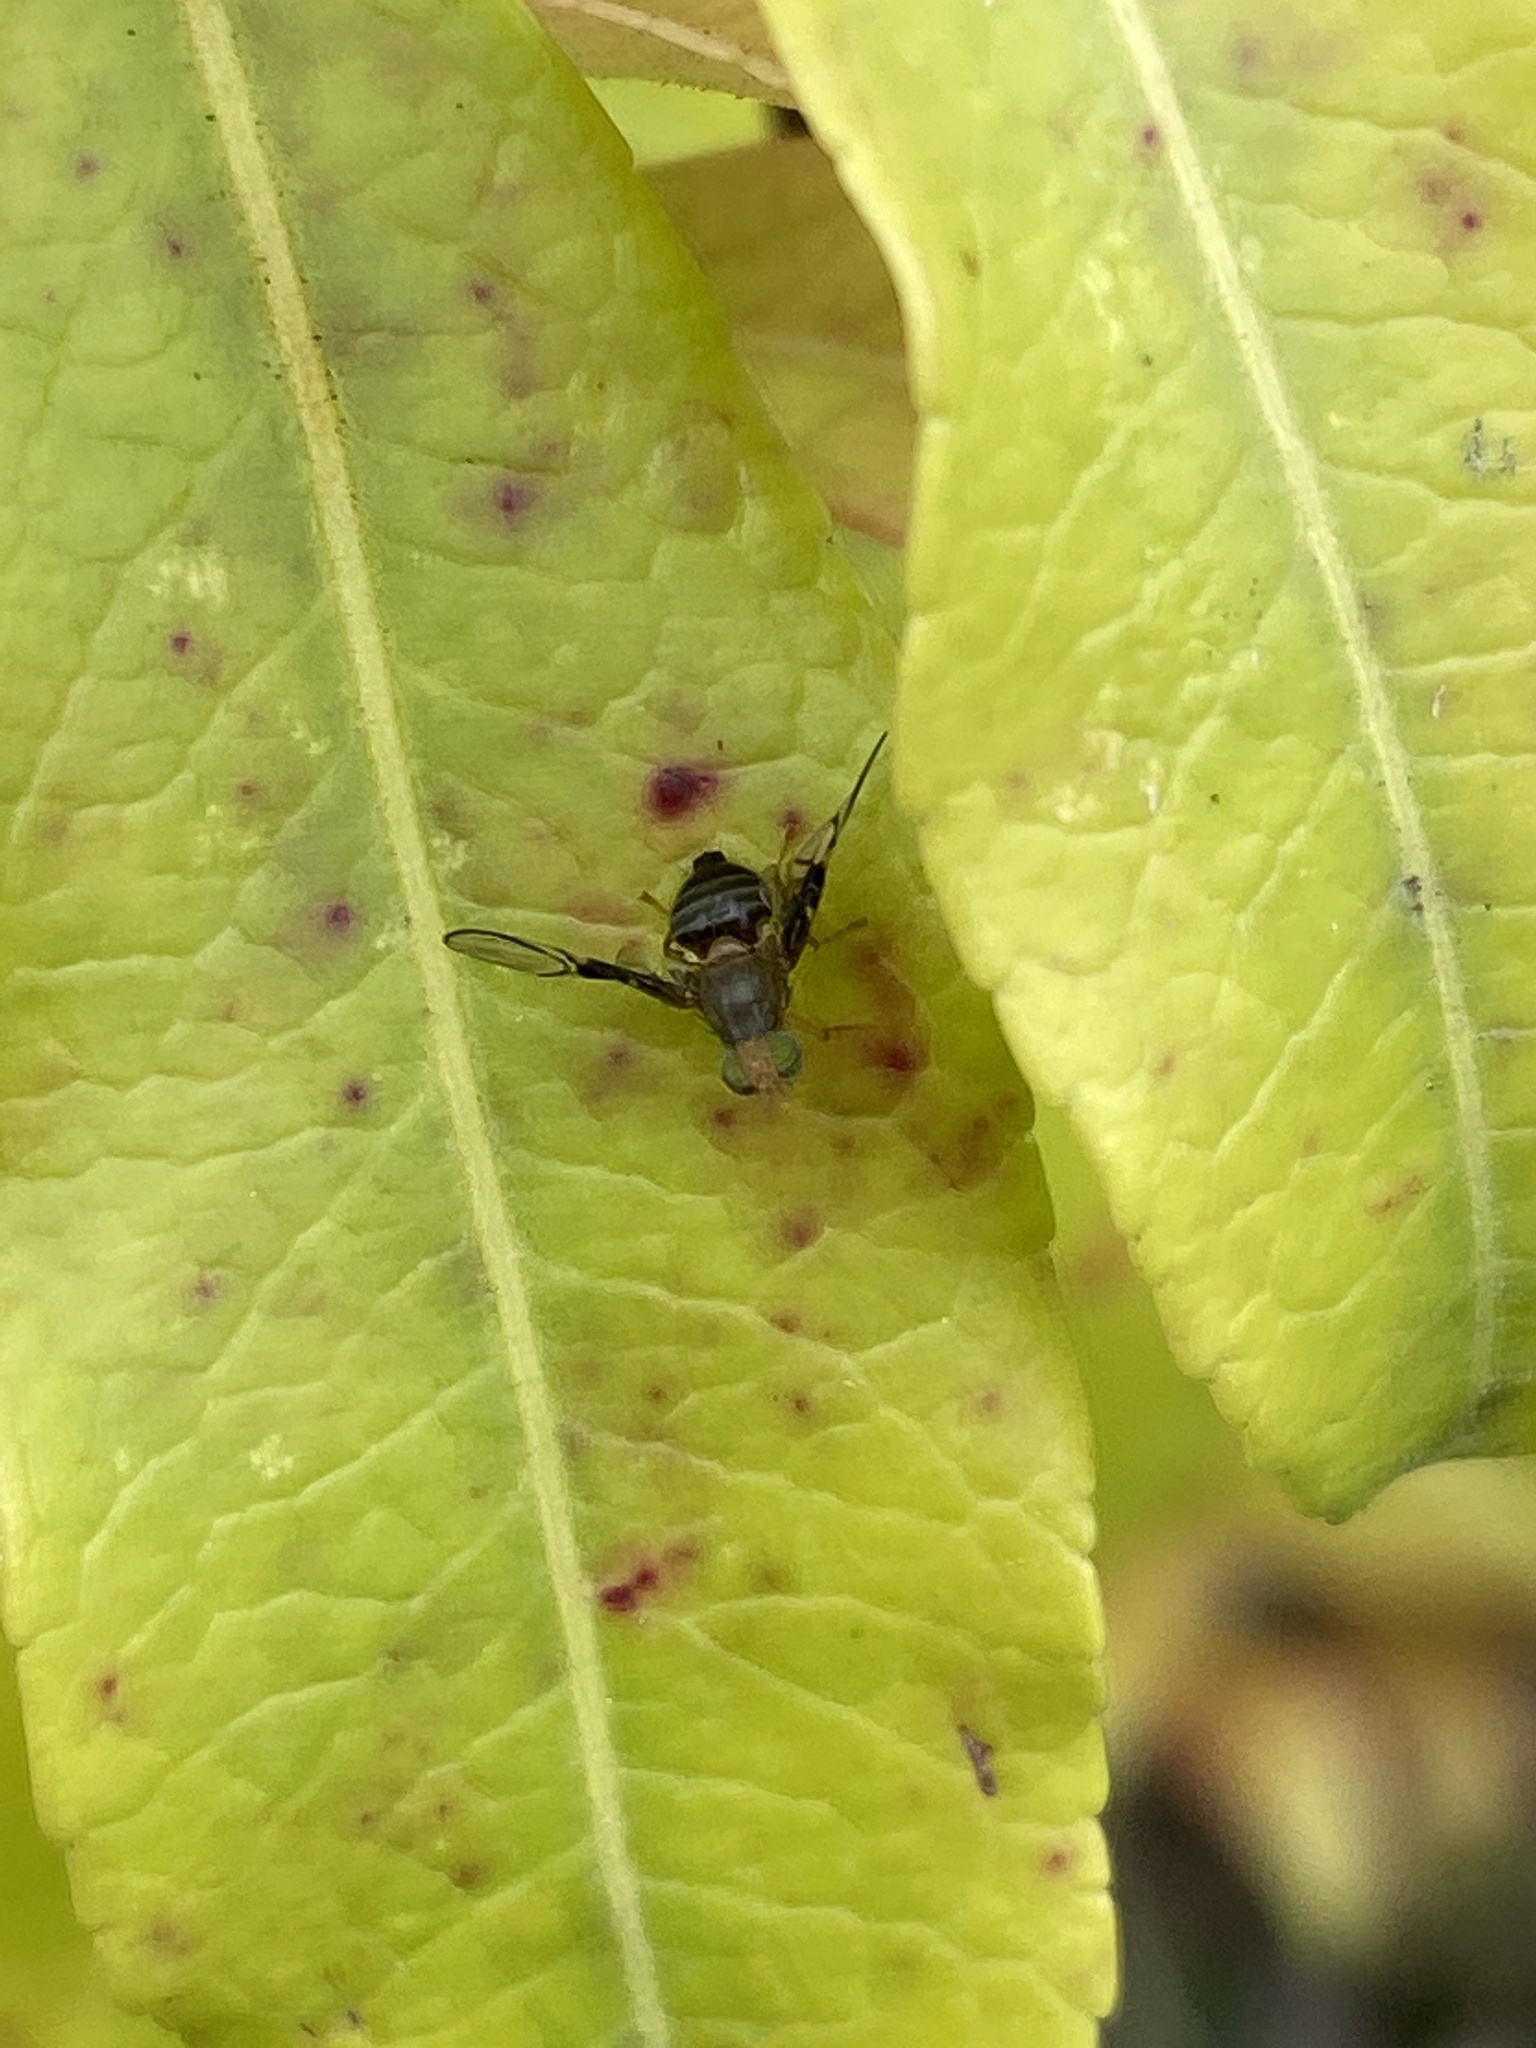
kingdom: Animalia
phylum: Arthropoda
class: Insecta
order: Diptera
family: Tephritidae
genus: Anomoia
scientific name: Anomoia purmunda
